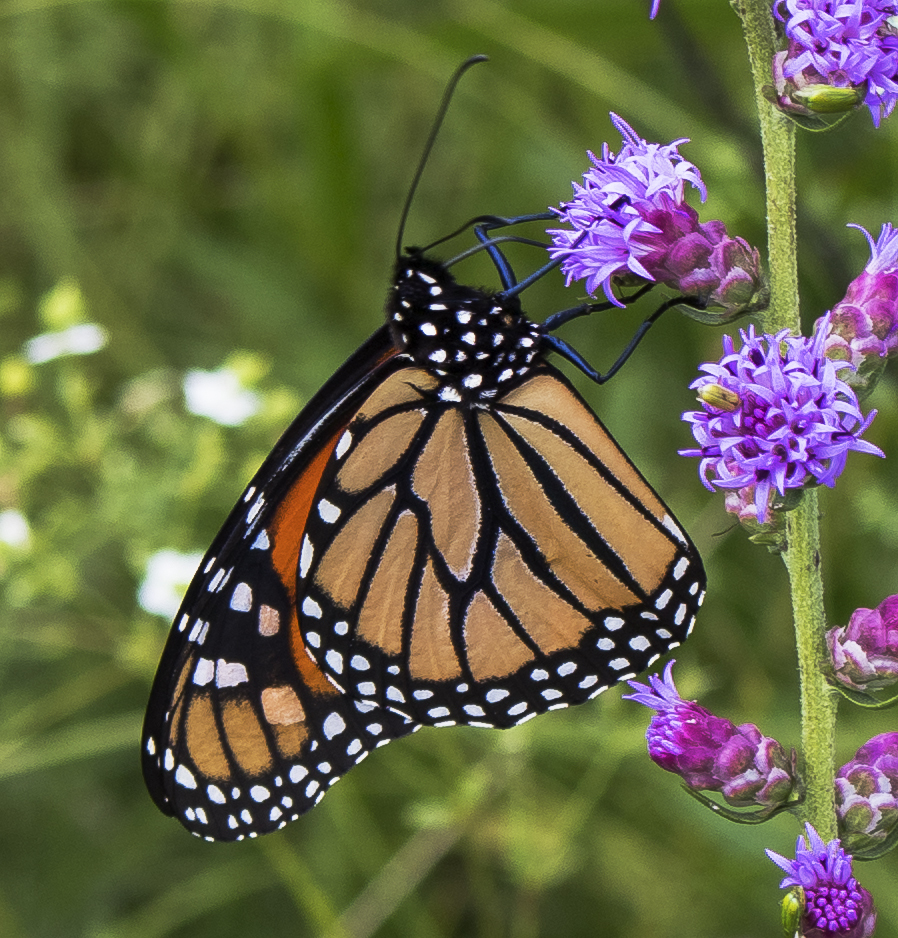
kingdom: Animalia
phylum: Arthropoda
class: Insecta
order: Lepidoptera
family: Nymphalidae
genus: Danaus
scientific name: Danaus plexippus
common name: Monarch
